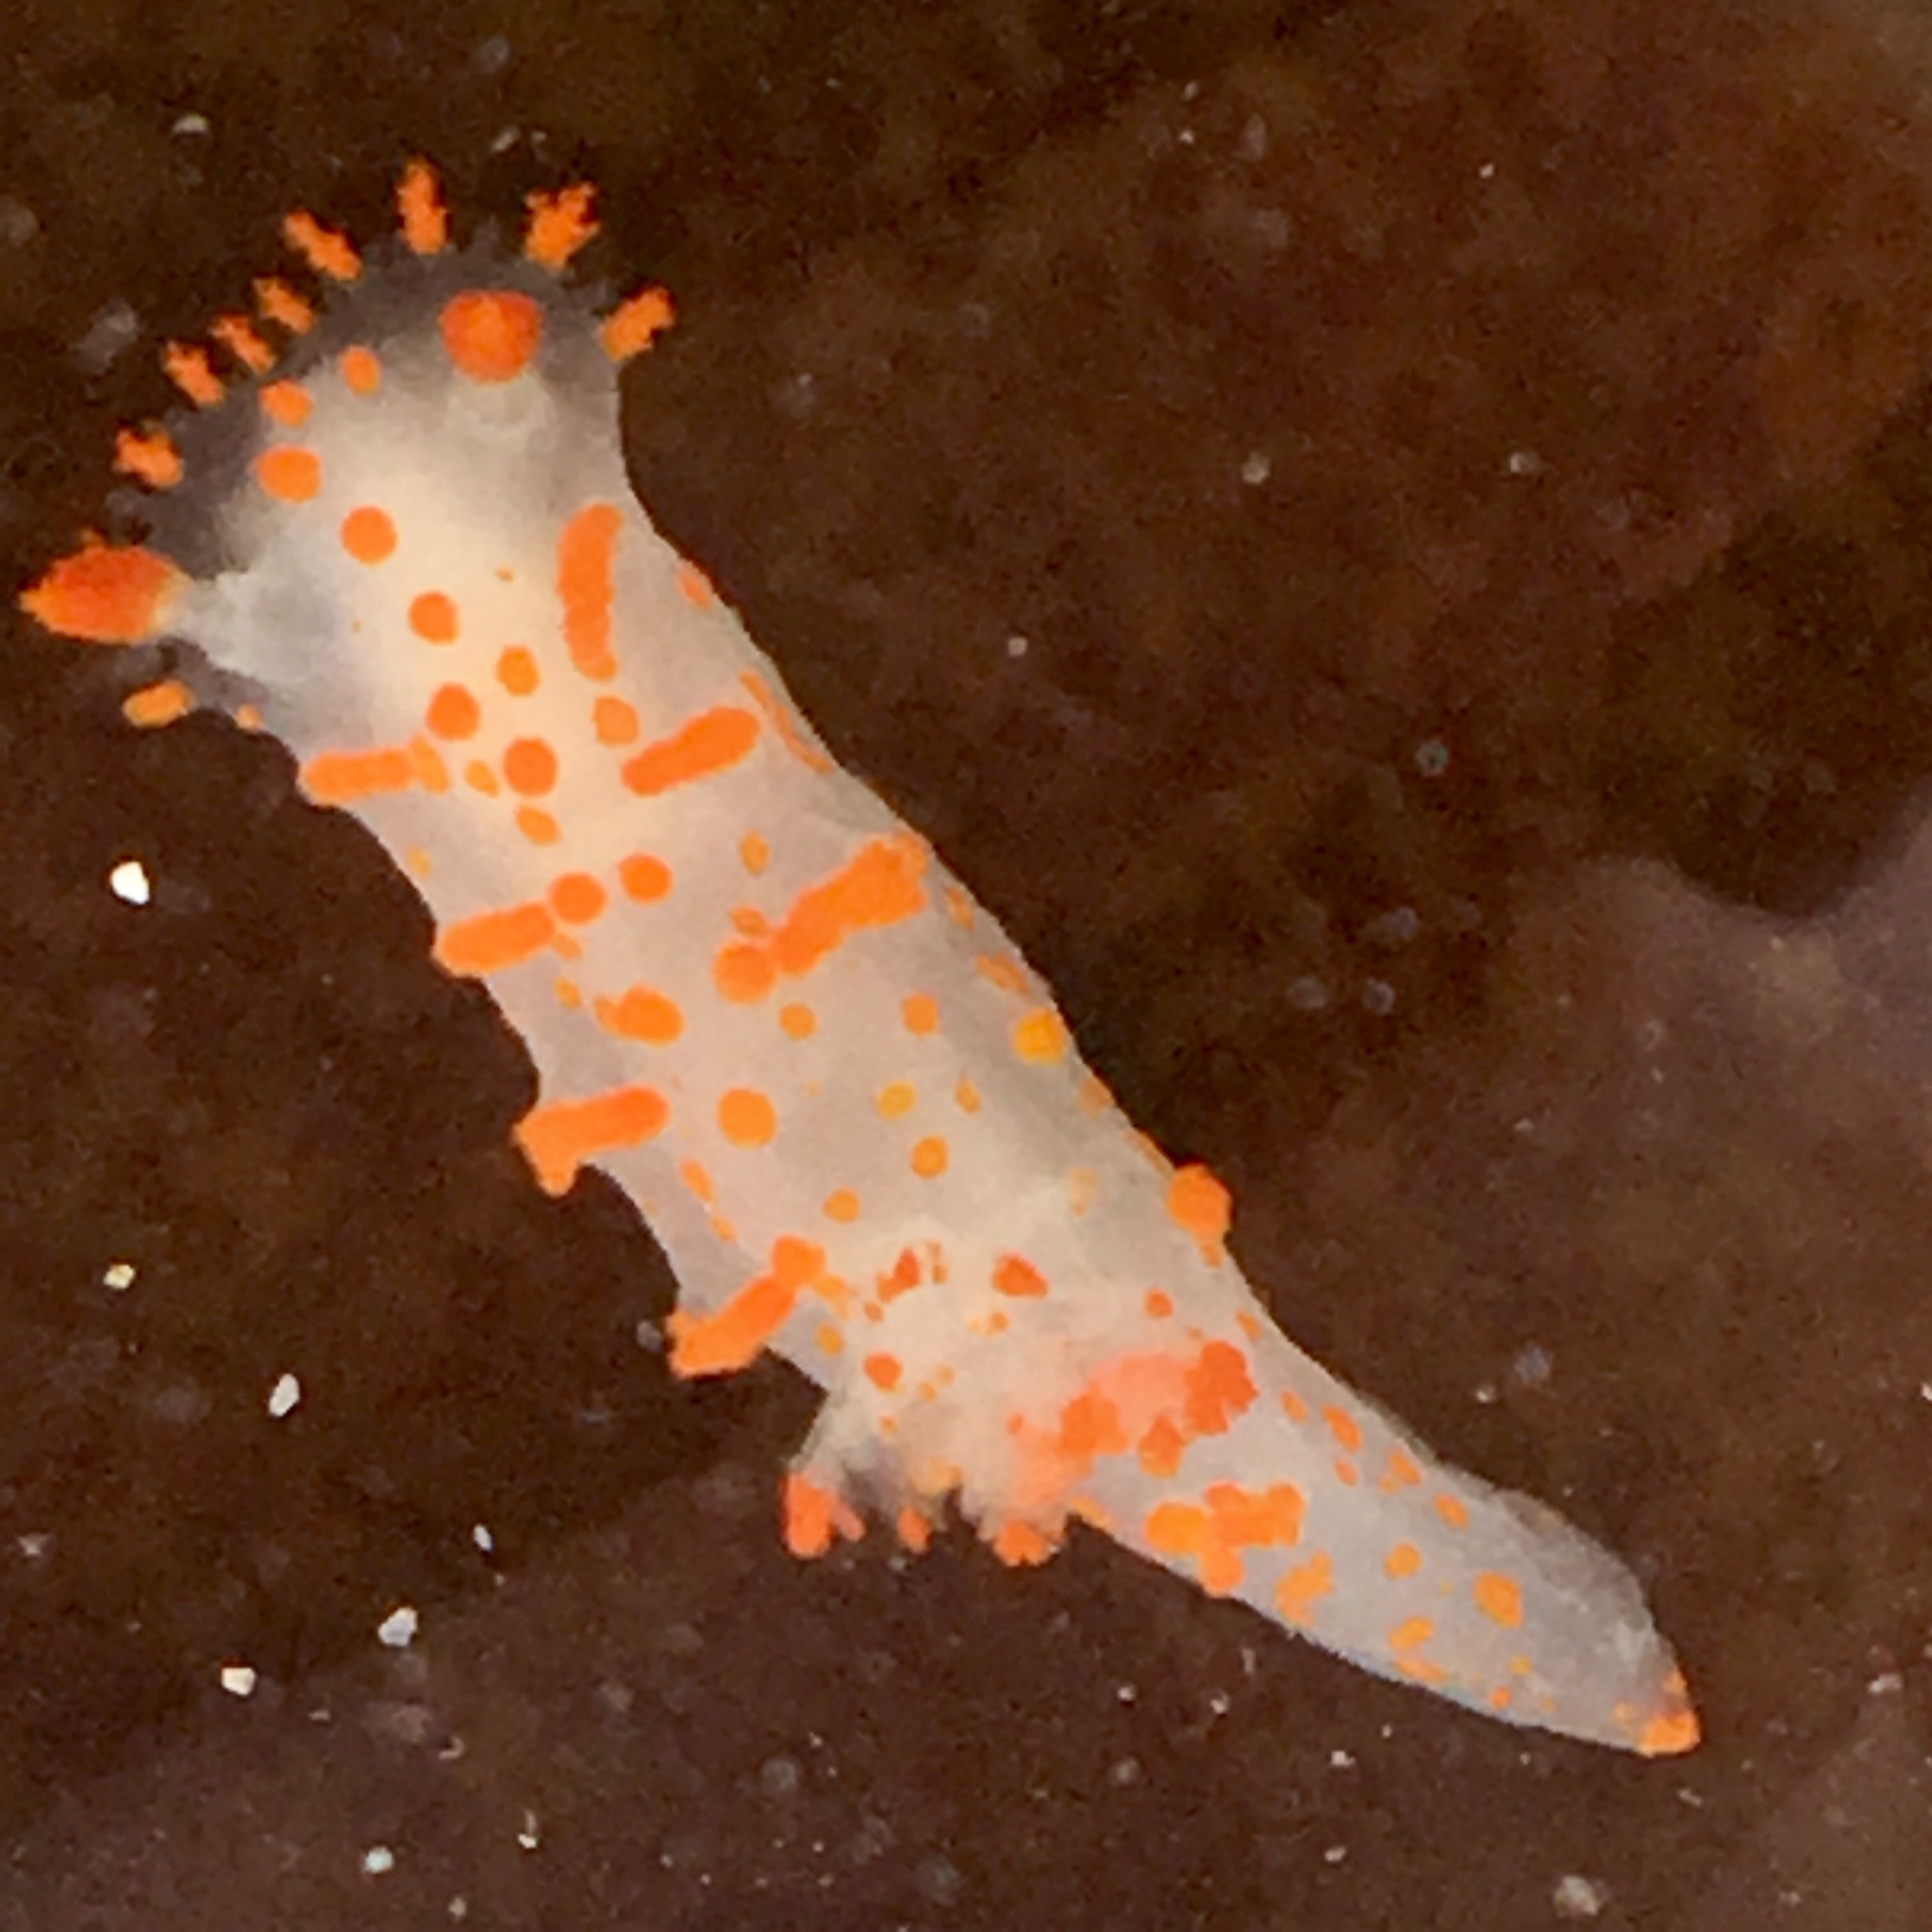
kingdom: Animalia
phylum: Mollusca
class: Gastropoda
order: Nudibranchia
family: Polyceridae
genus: Triopha
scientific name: Triopha catalinae
